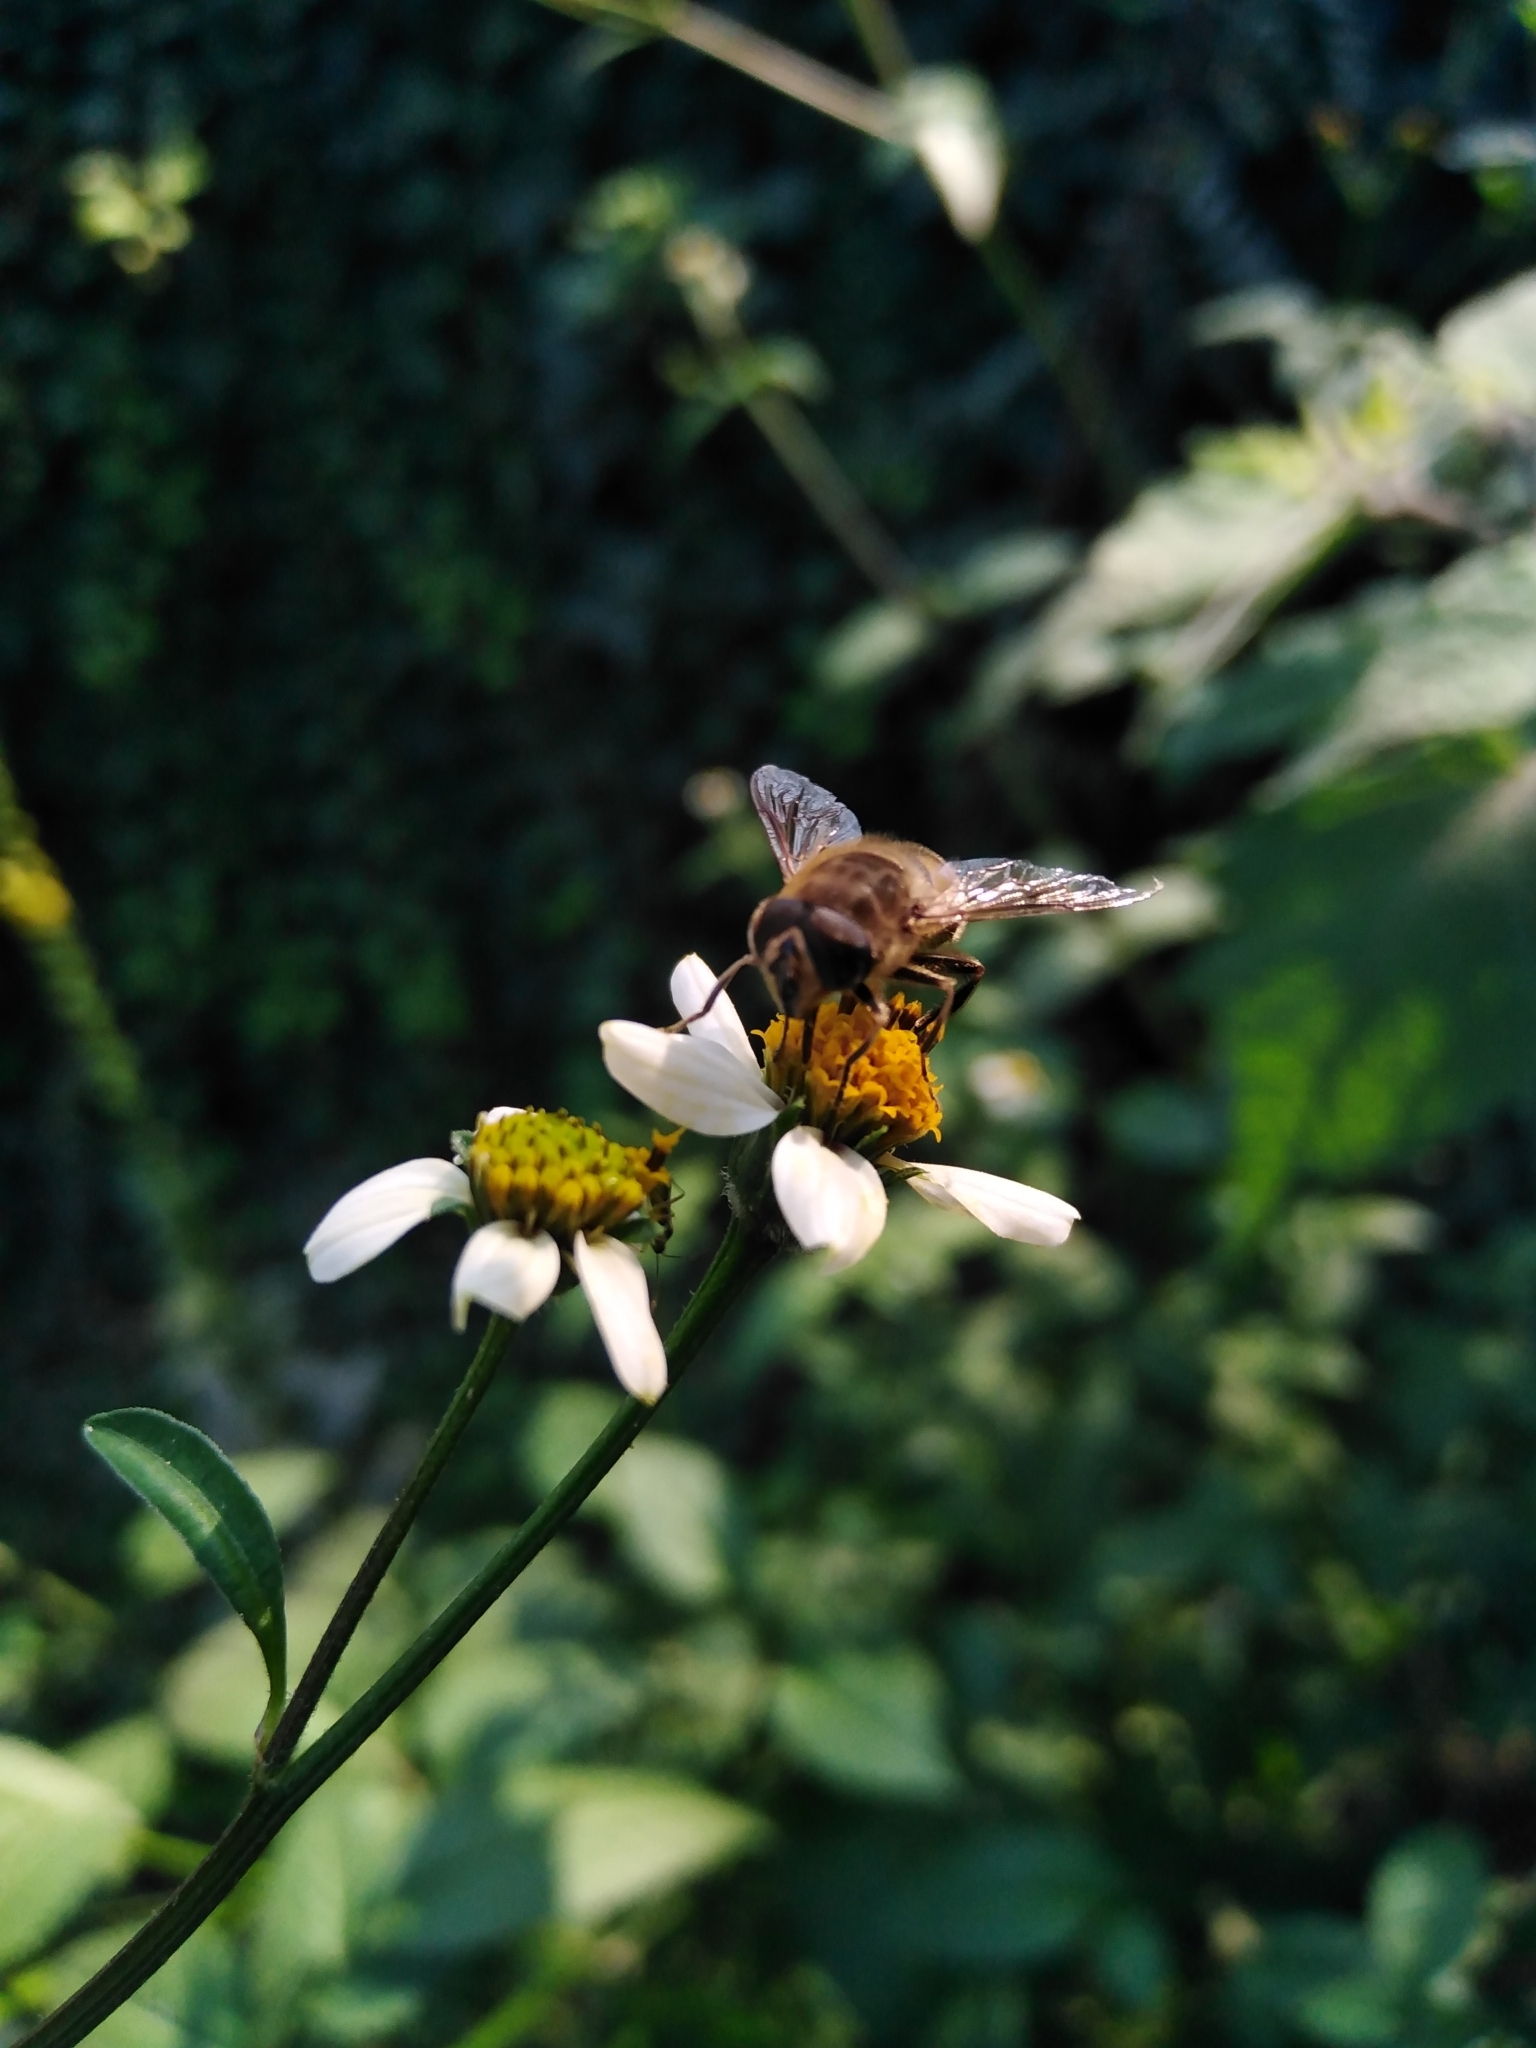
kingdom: Animalia
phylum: Arthropoda
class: Insecta
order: Diptera
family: Syrphidae
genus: Eristalis
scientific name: Eristalis tenax
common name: Drone fly
